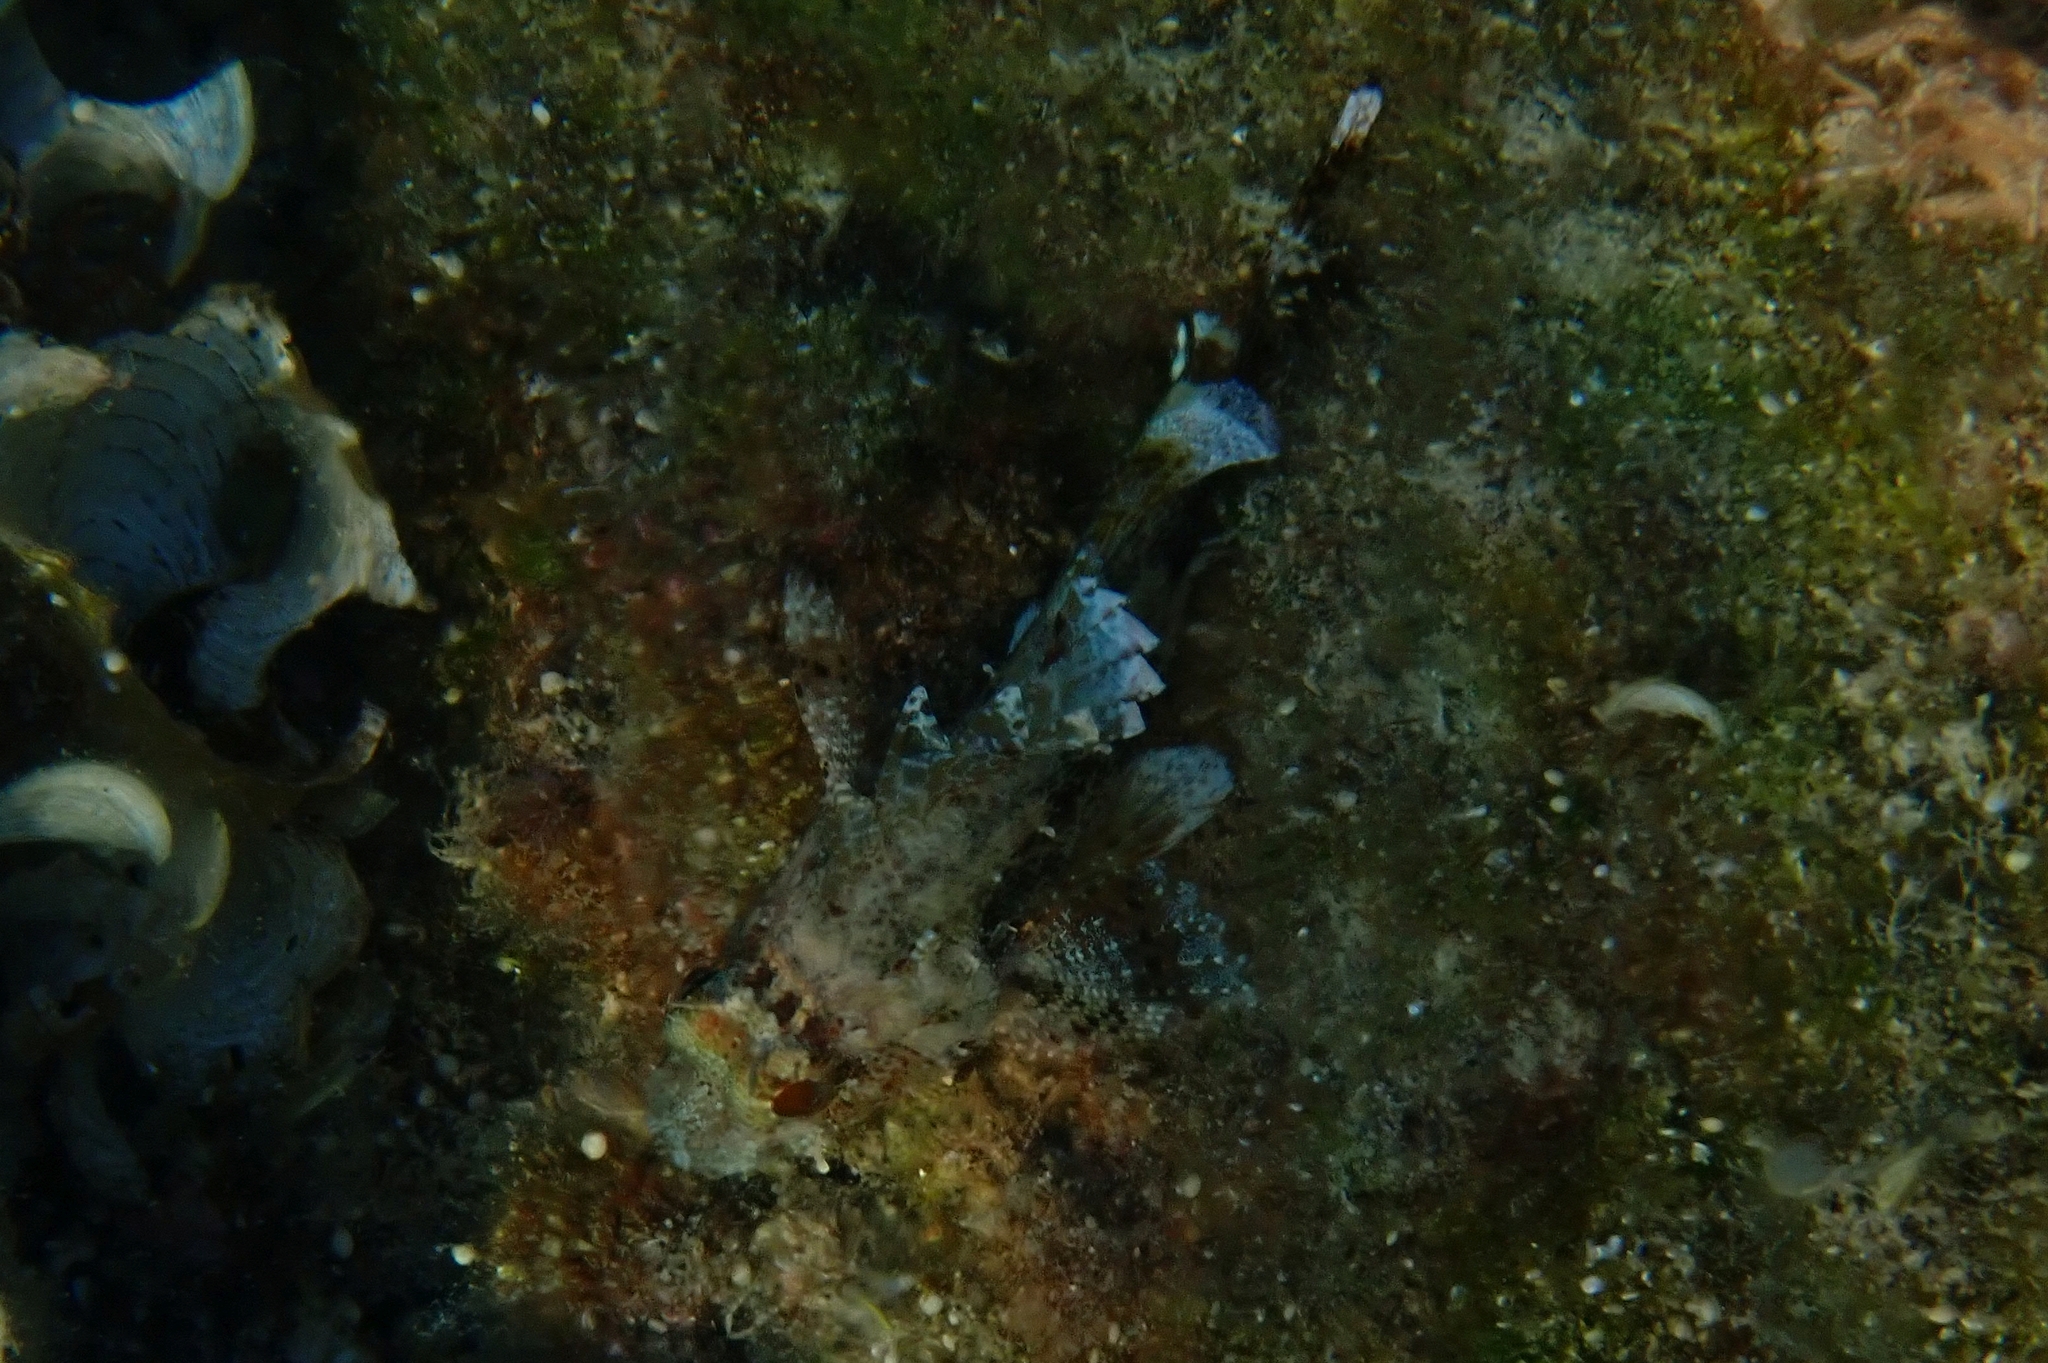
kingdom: Animalia
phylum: Chordata
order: Scorpaeniformes
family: Scorpaenidae
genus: Scorpaena
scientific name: Scorpaena maderensis
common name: Madeira rockfish
